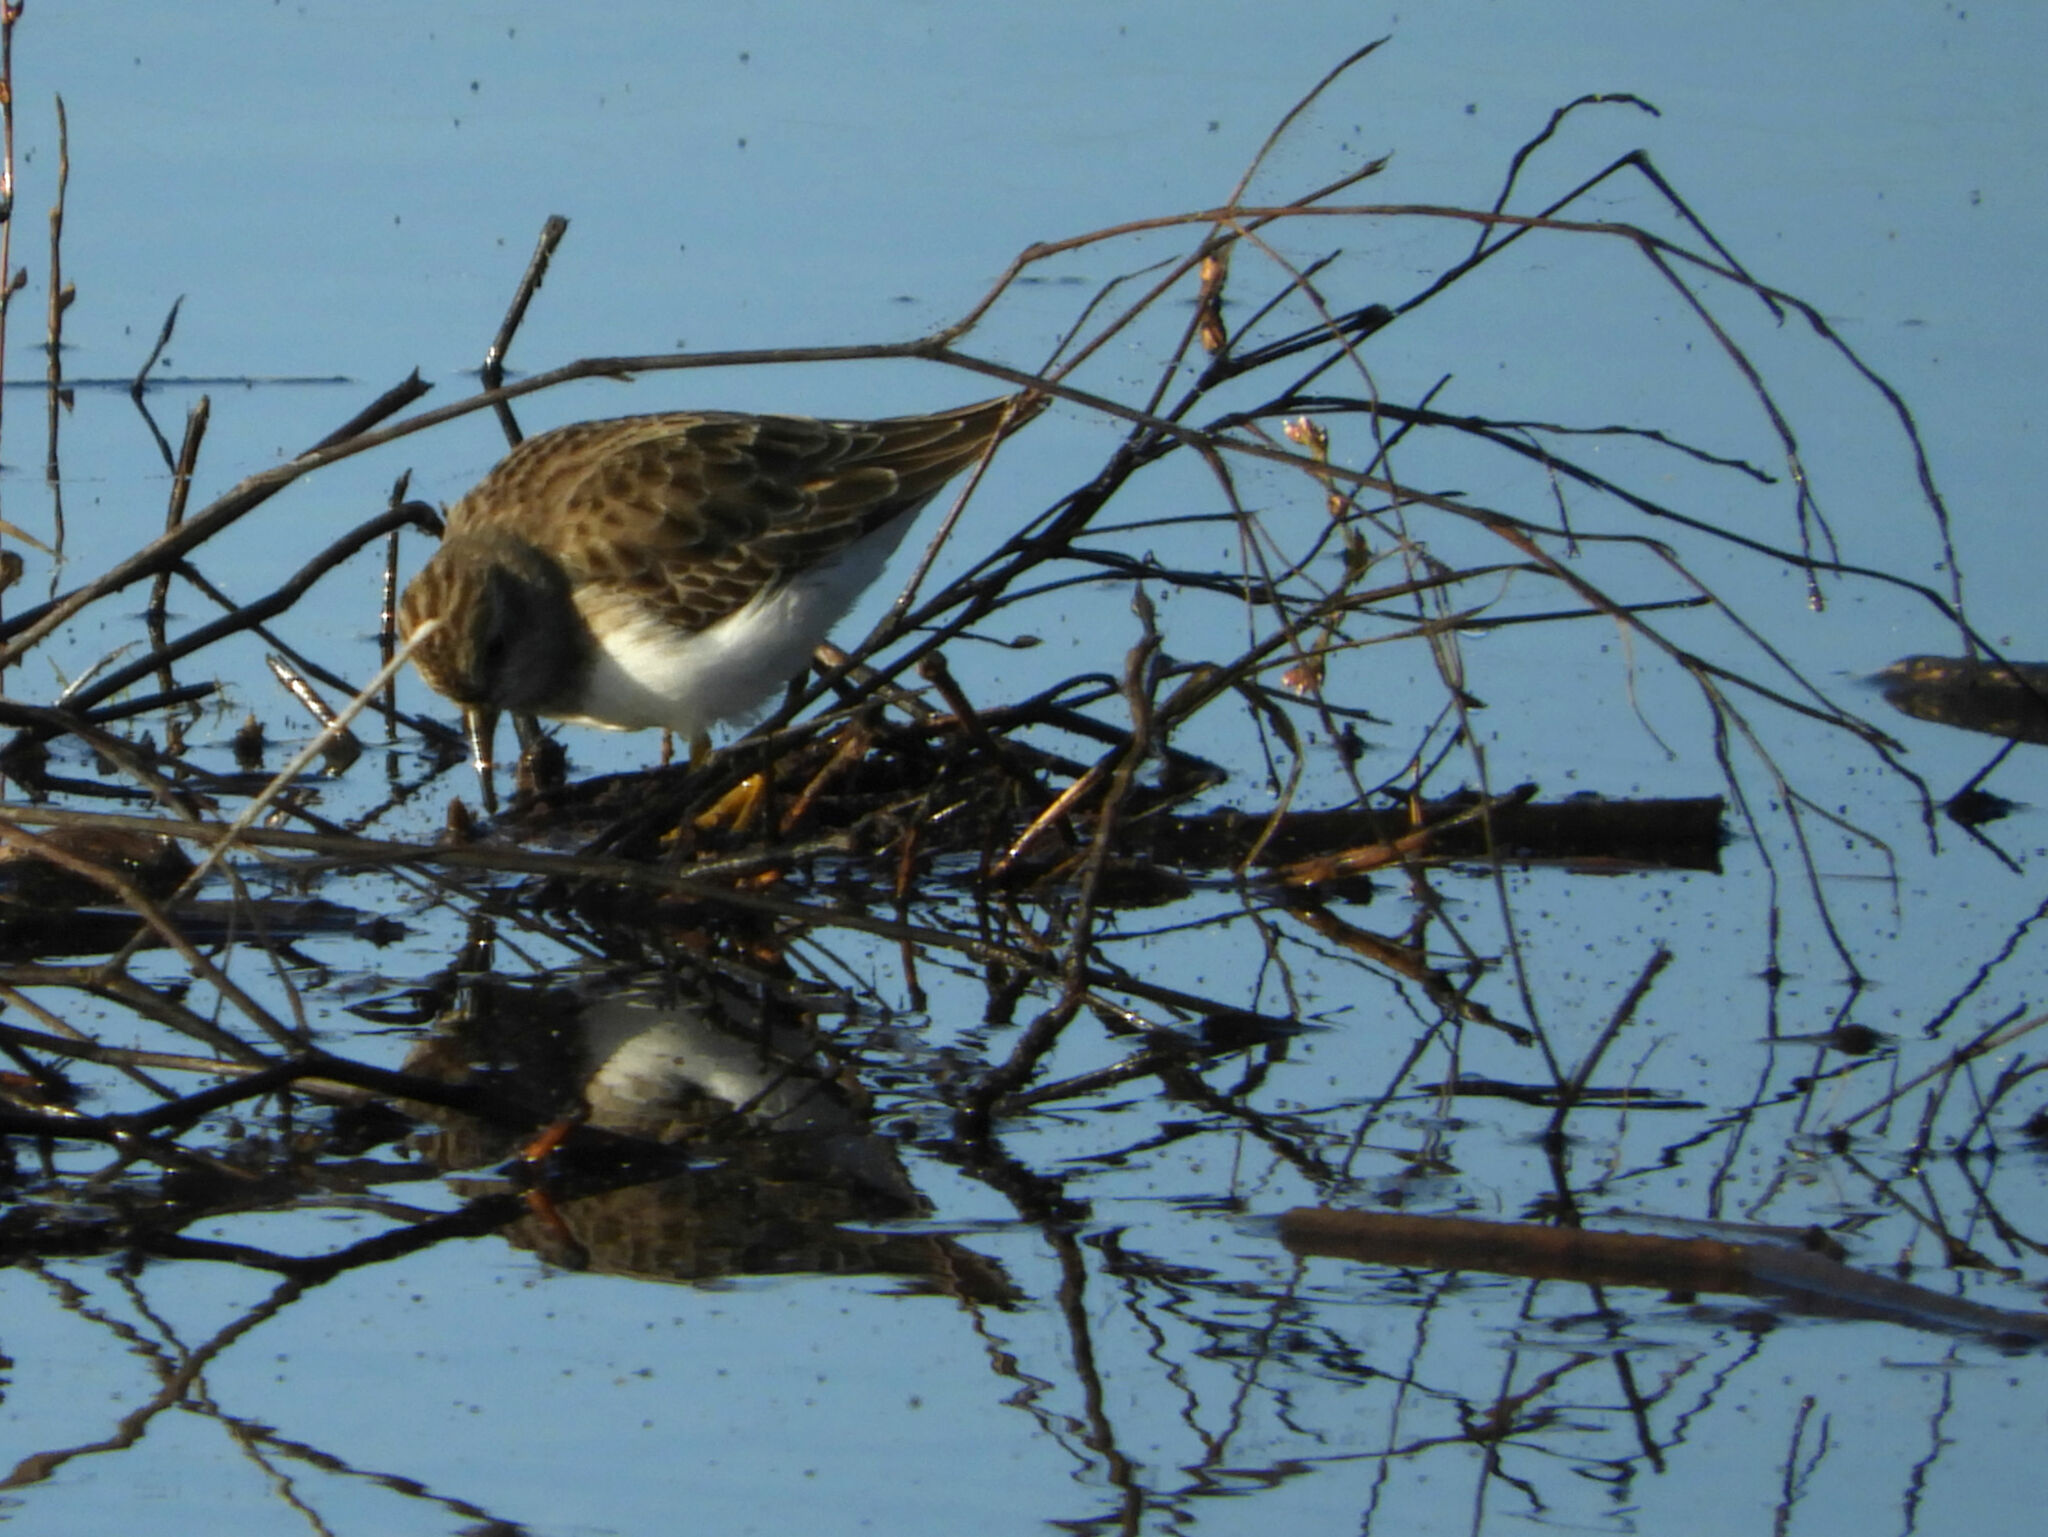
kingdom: Animalia
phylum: Chordata
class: Aves
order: Charadriiformes
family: Scolopacidae
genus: Calidris
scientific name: Calidris minutilla
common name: Least sandpiper
